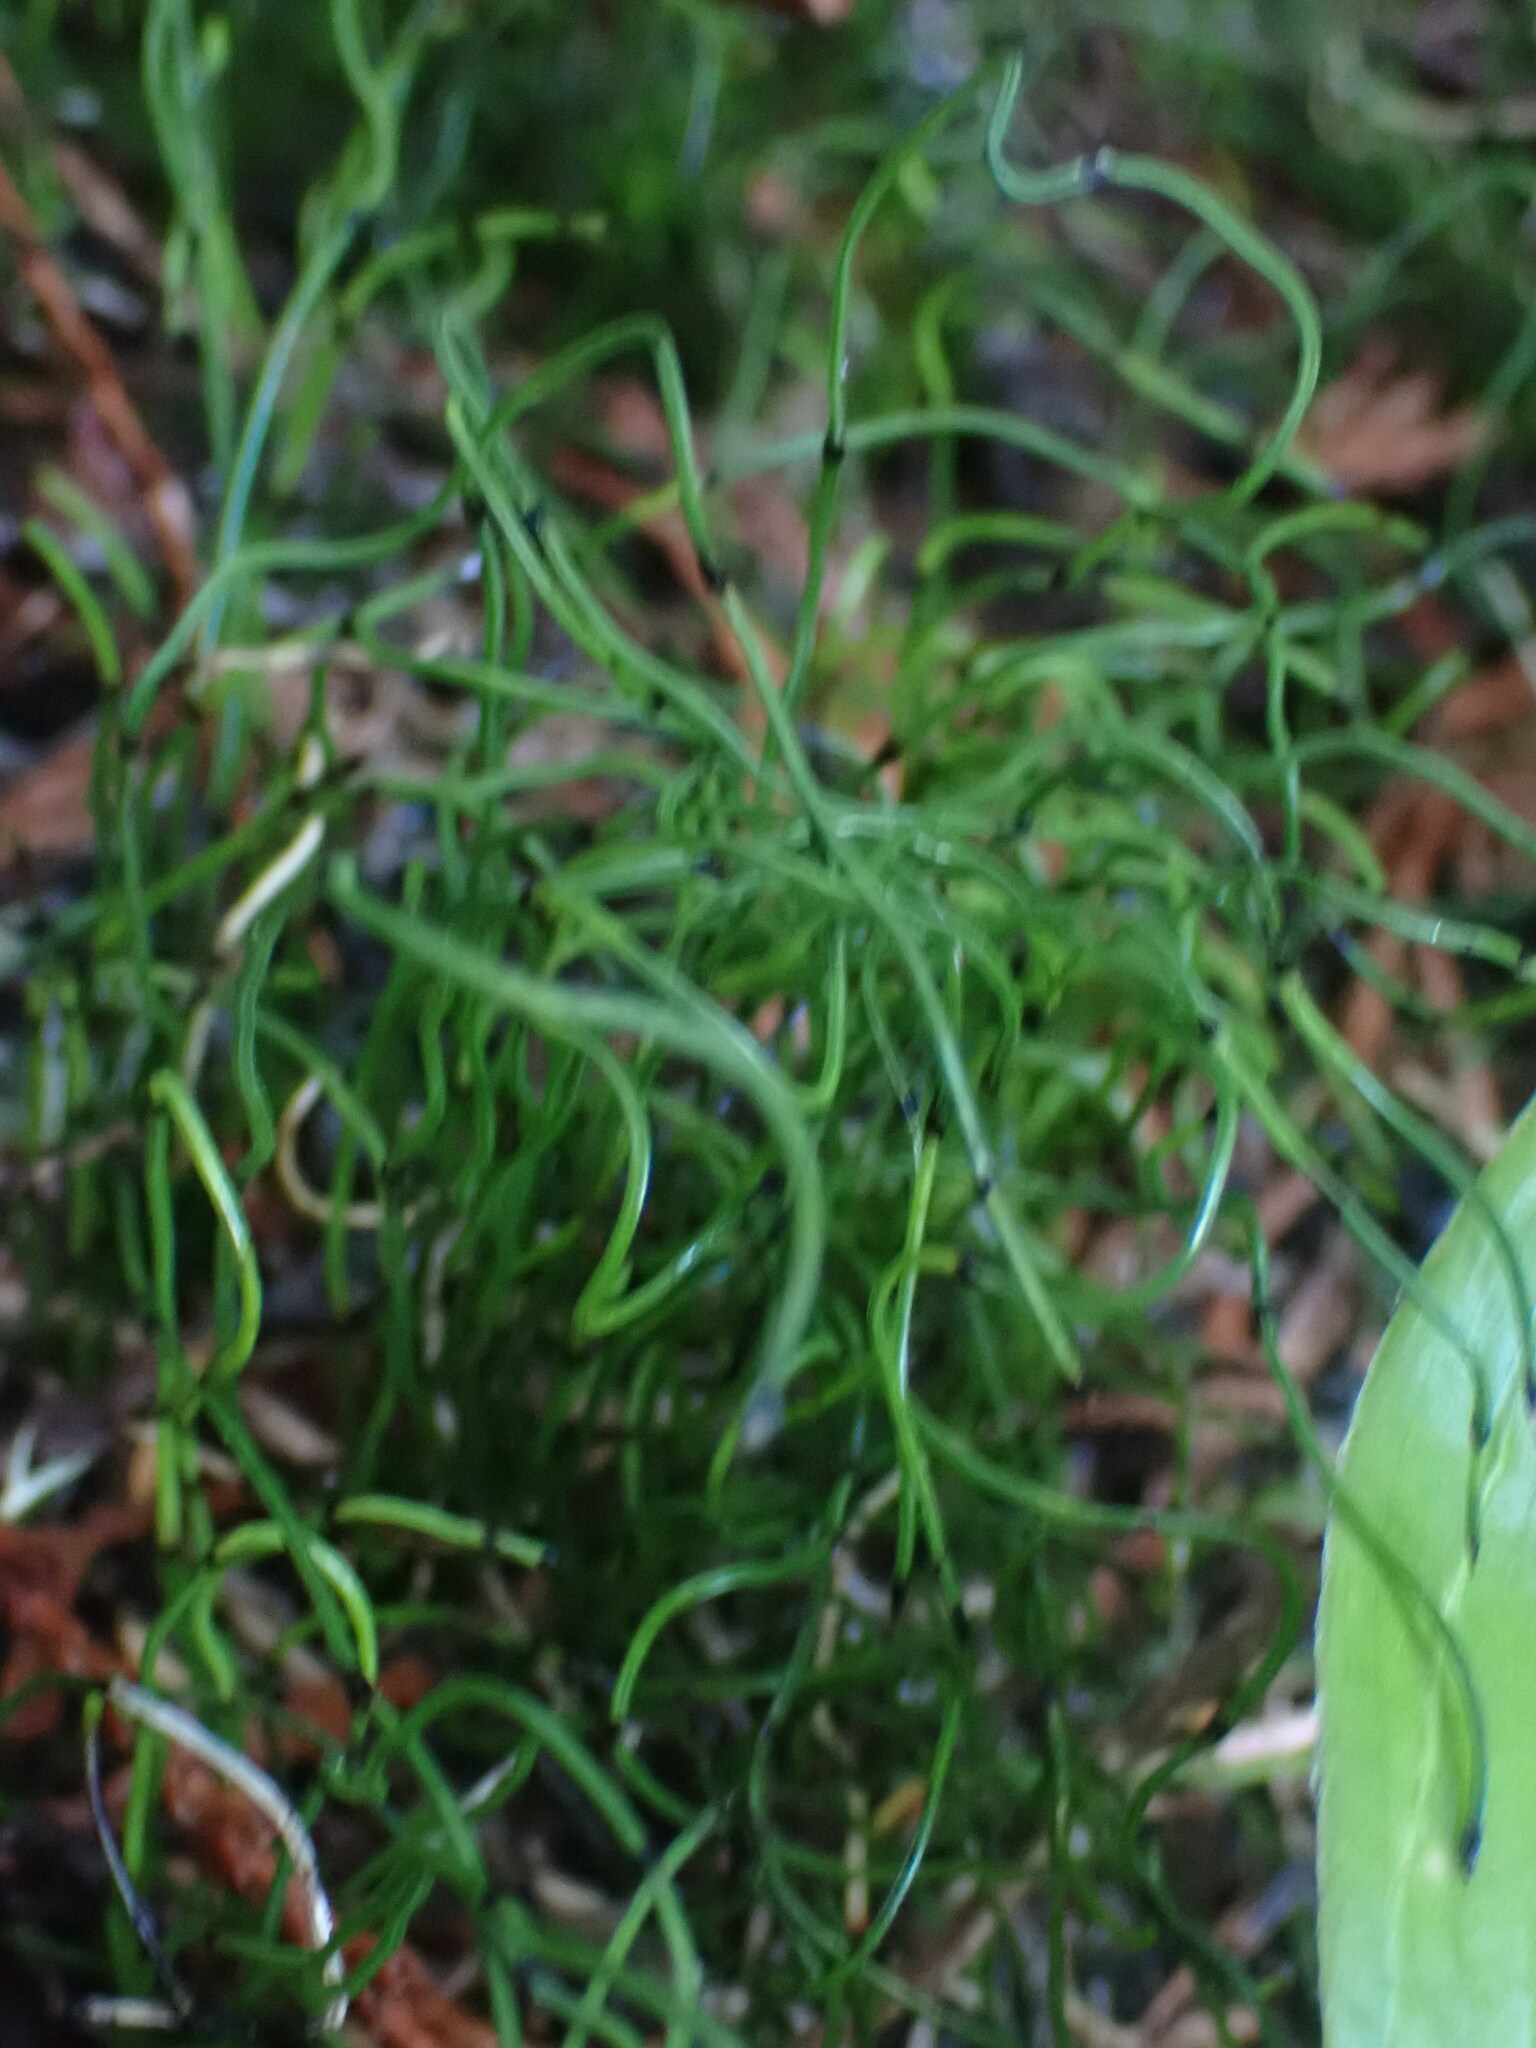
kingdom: Plantae
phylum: Tracheophyta
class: Polypodiopsida
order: Equisetales
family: Equisetaceae
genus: Equisetum
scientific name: Equisetum scirpoides
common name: Delicate horsetail
